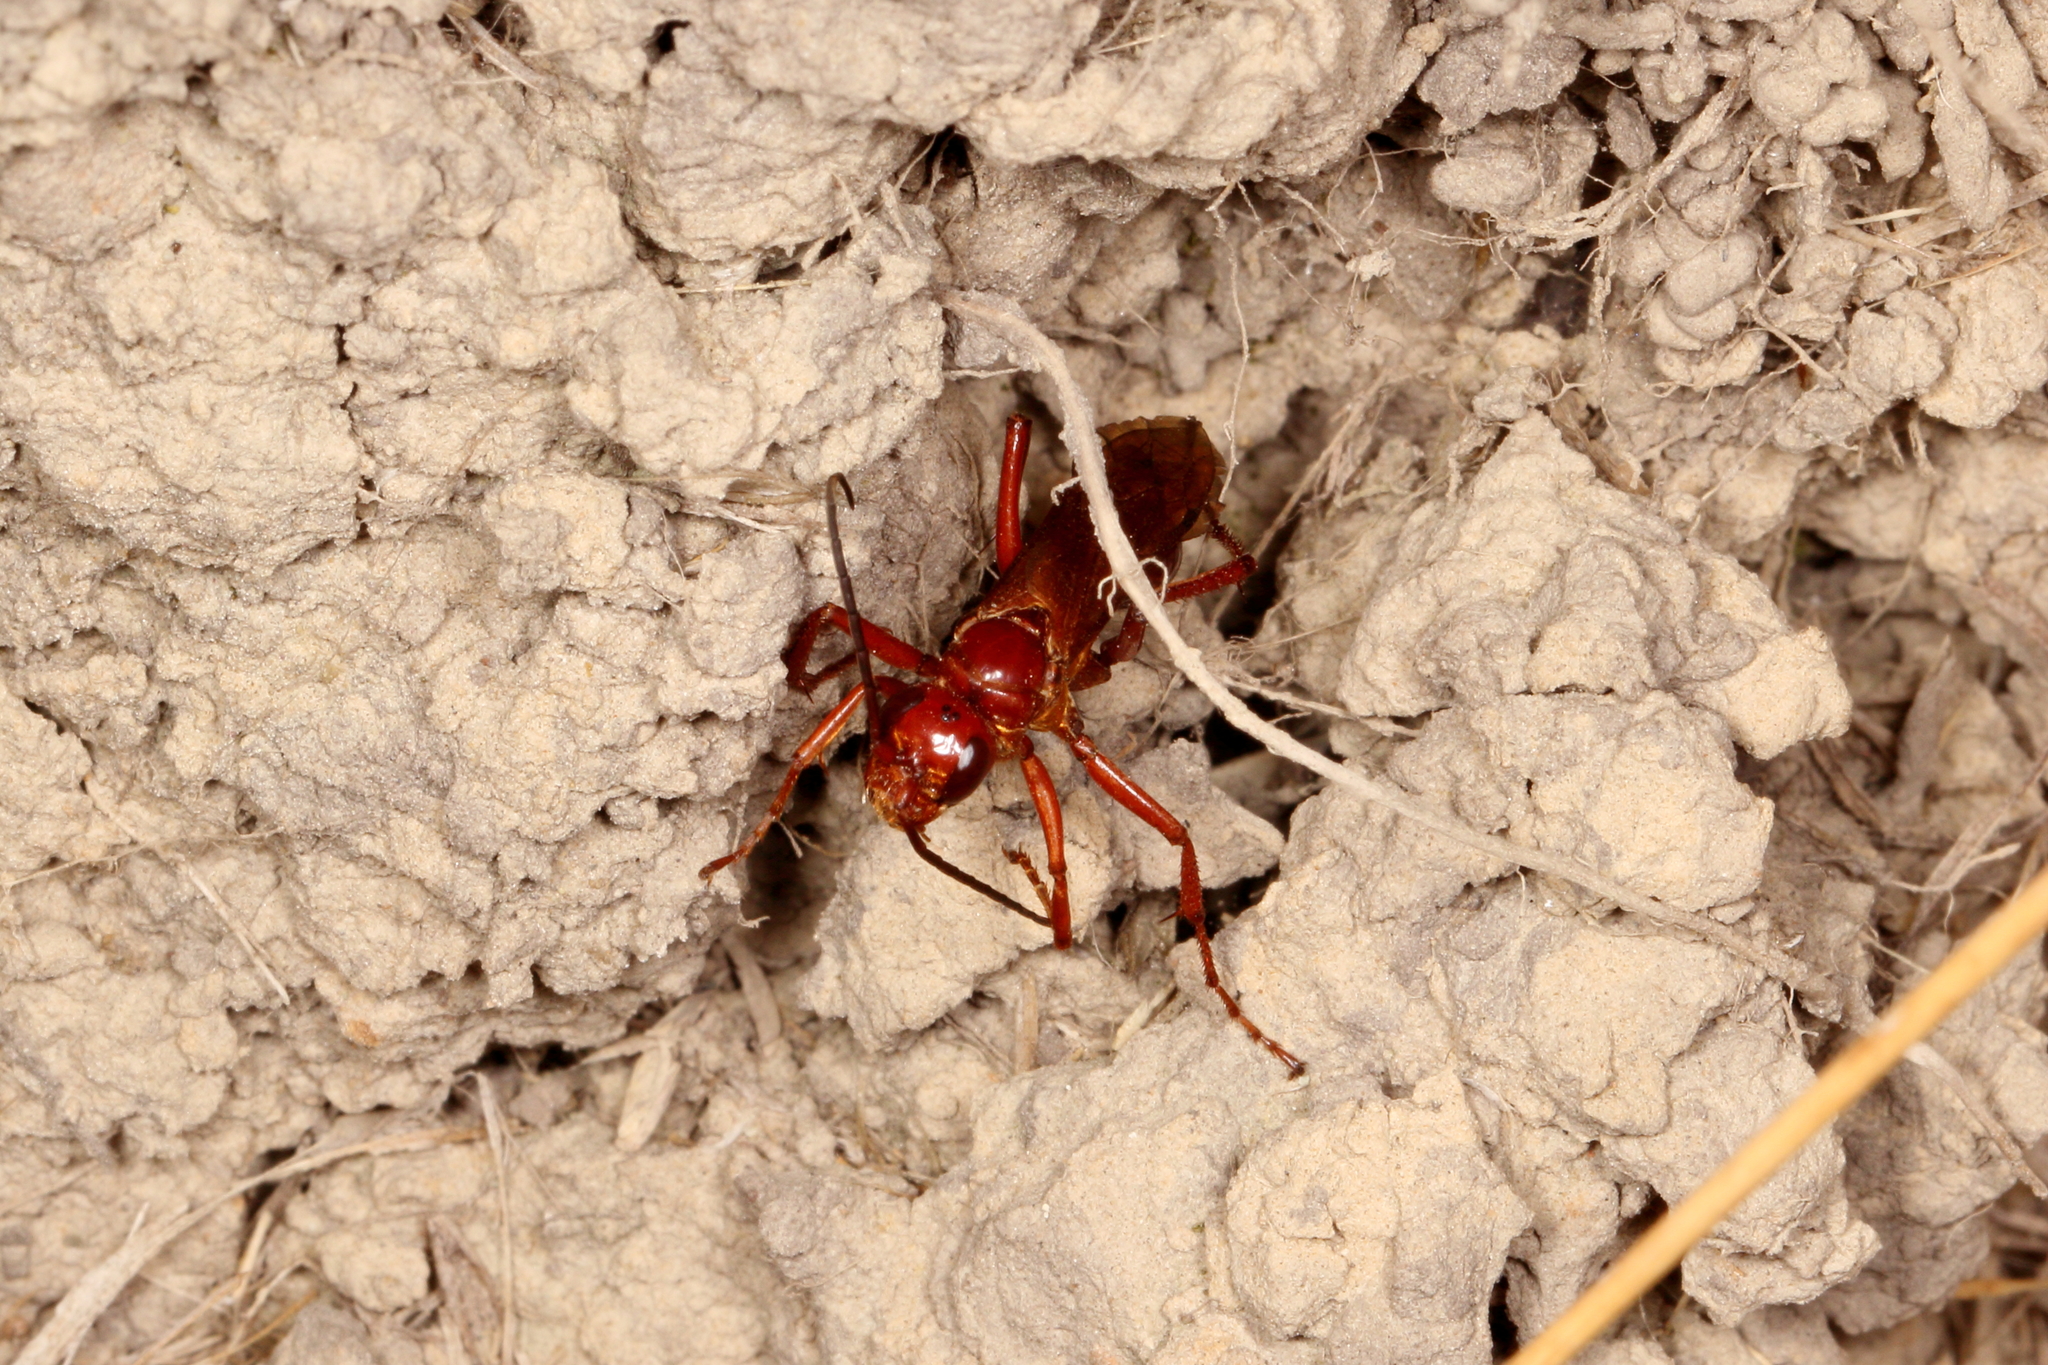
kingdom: Animalia
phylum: Arthropoda
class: Insecta
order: Hymenoptera
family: Pompilidae
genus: Sphictostethus
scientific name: Sphictostethus nitidus
